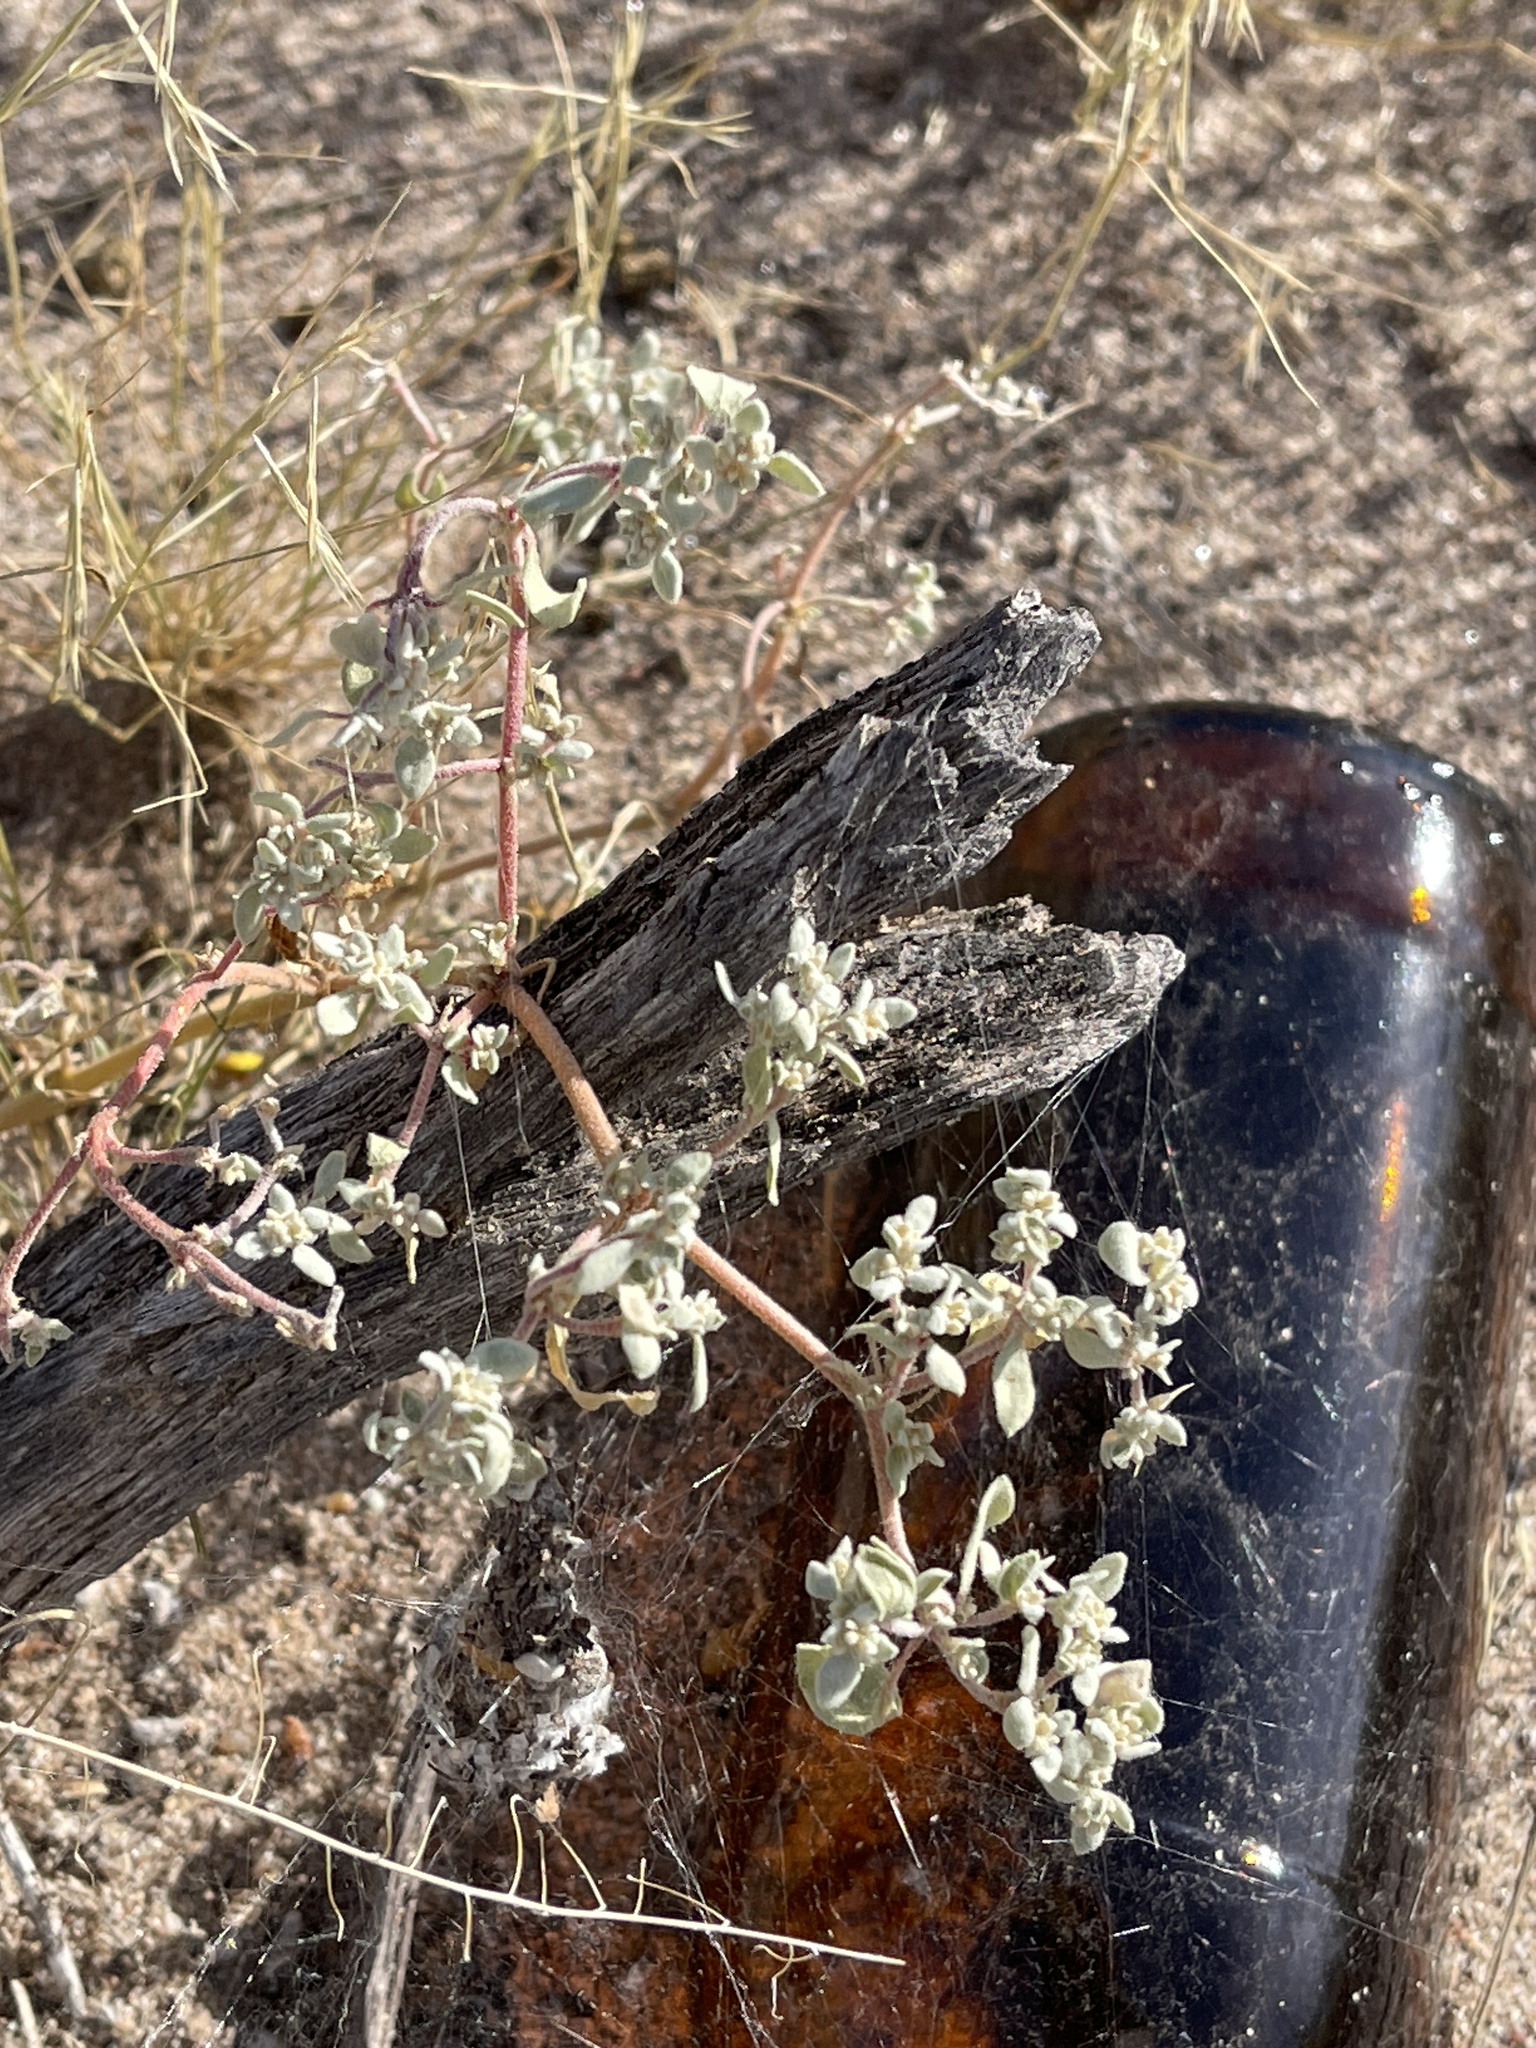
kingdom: Plantae
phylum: Tracheophyta
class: Magnoliopsida
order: Caryophyllales
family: Amaranthaceae
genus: Tidestromia
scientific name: Tidestromia lanuginosa
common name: Woolly tidestromia
